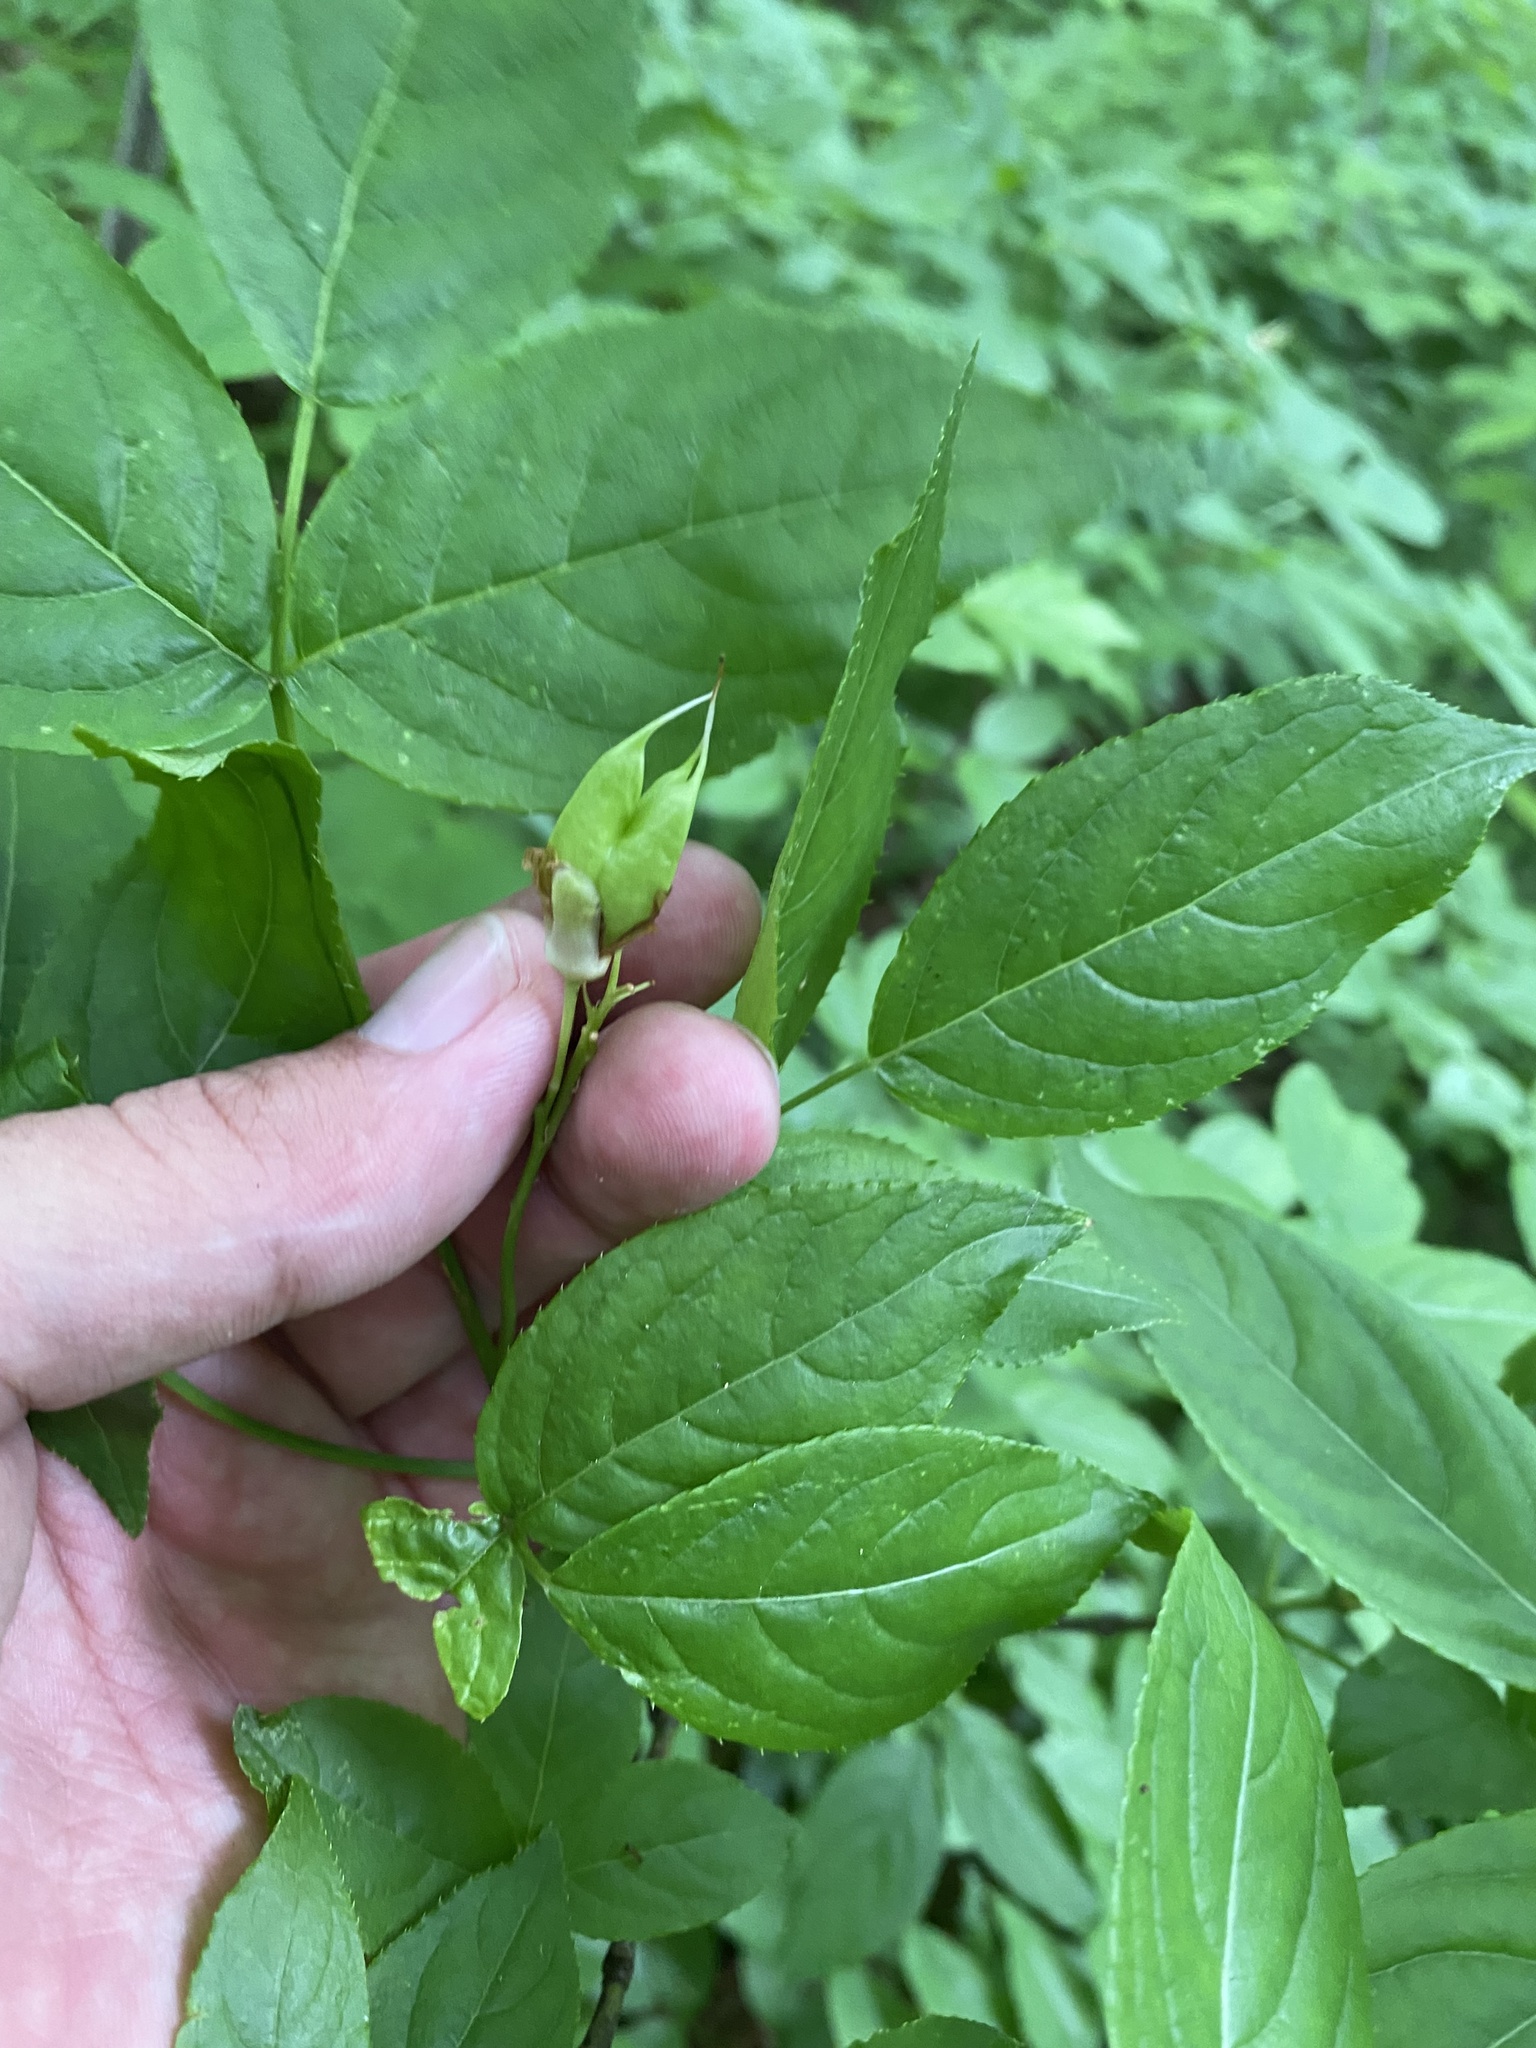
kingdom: Plantae
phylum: Tracheophyta
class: Magnoliopsida
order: Crossosomatales
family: Staphyleaceae
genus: Staphylea
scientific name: Staphylea colchica
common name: Caucasian bladdernut
